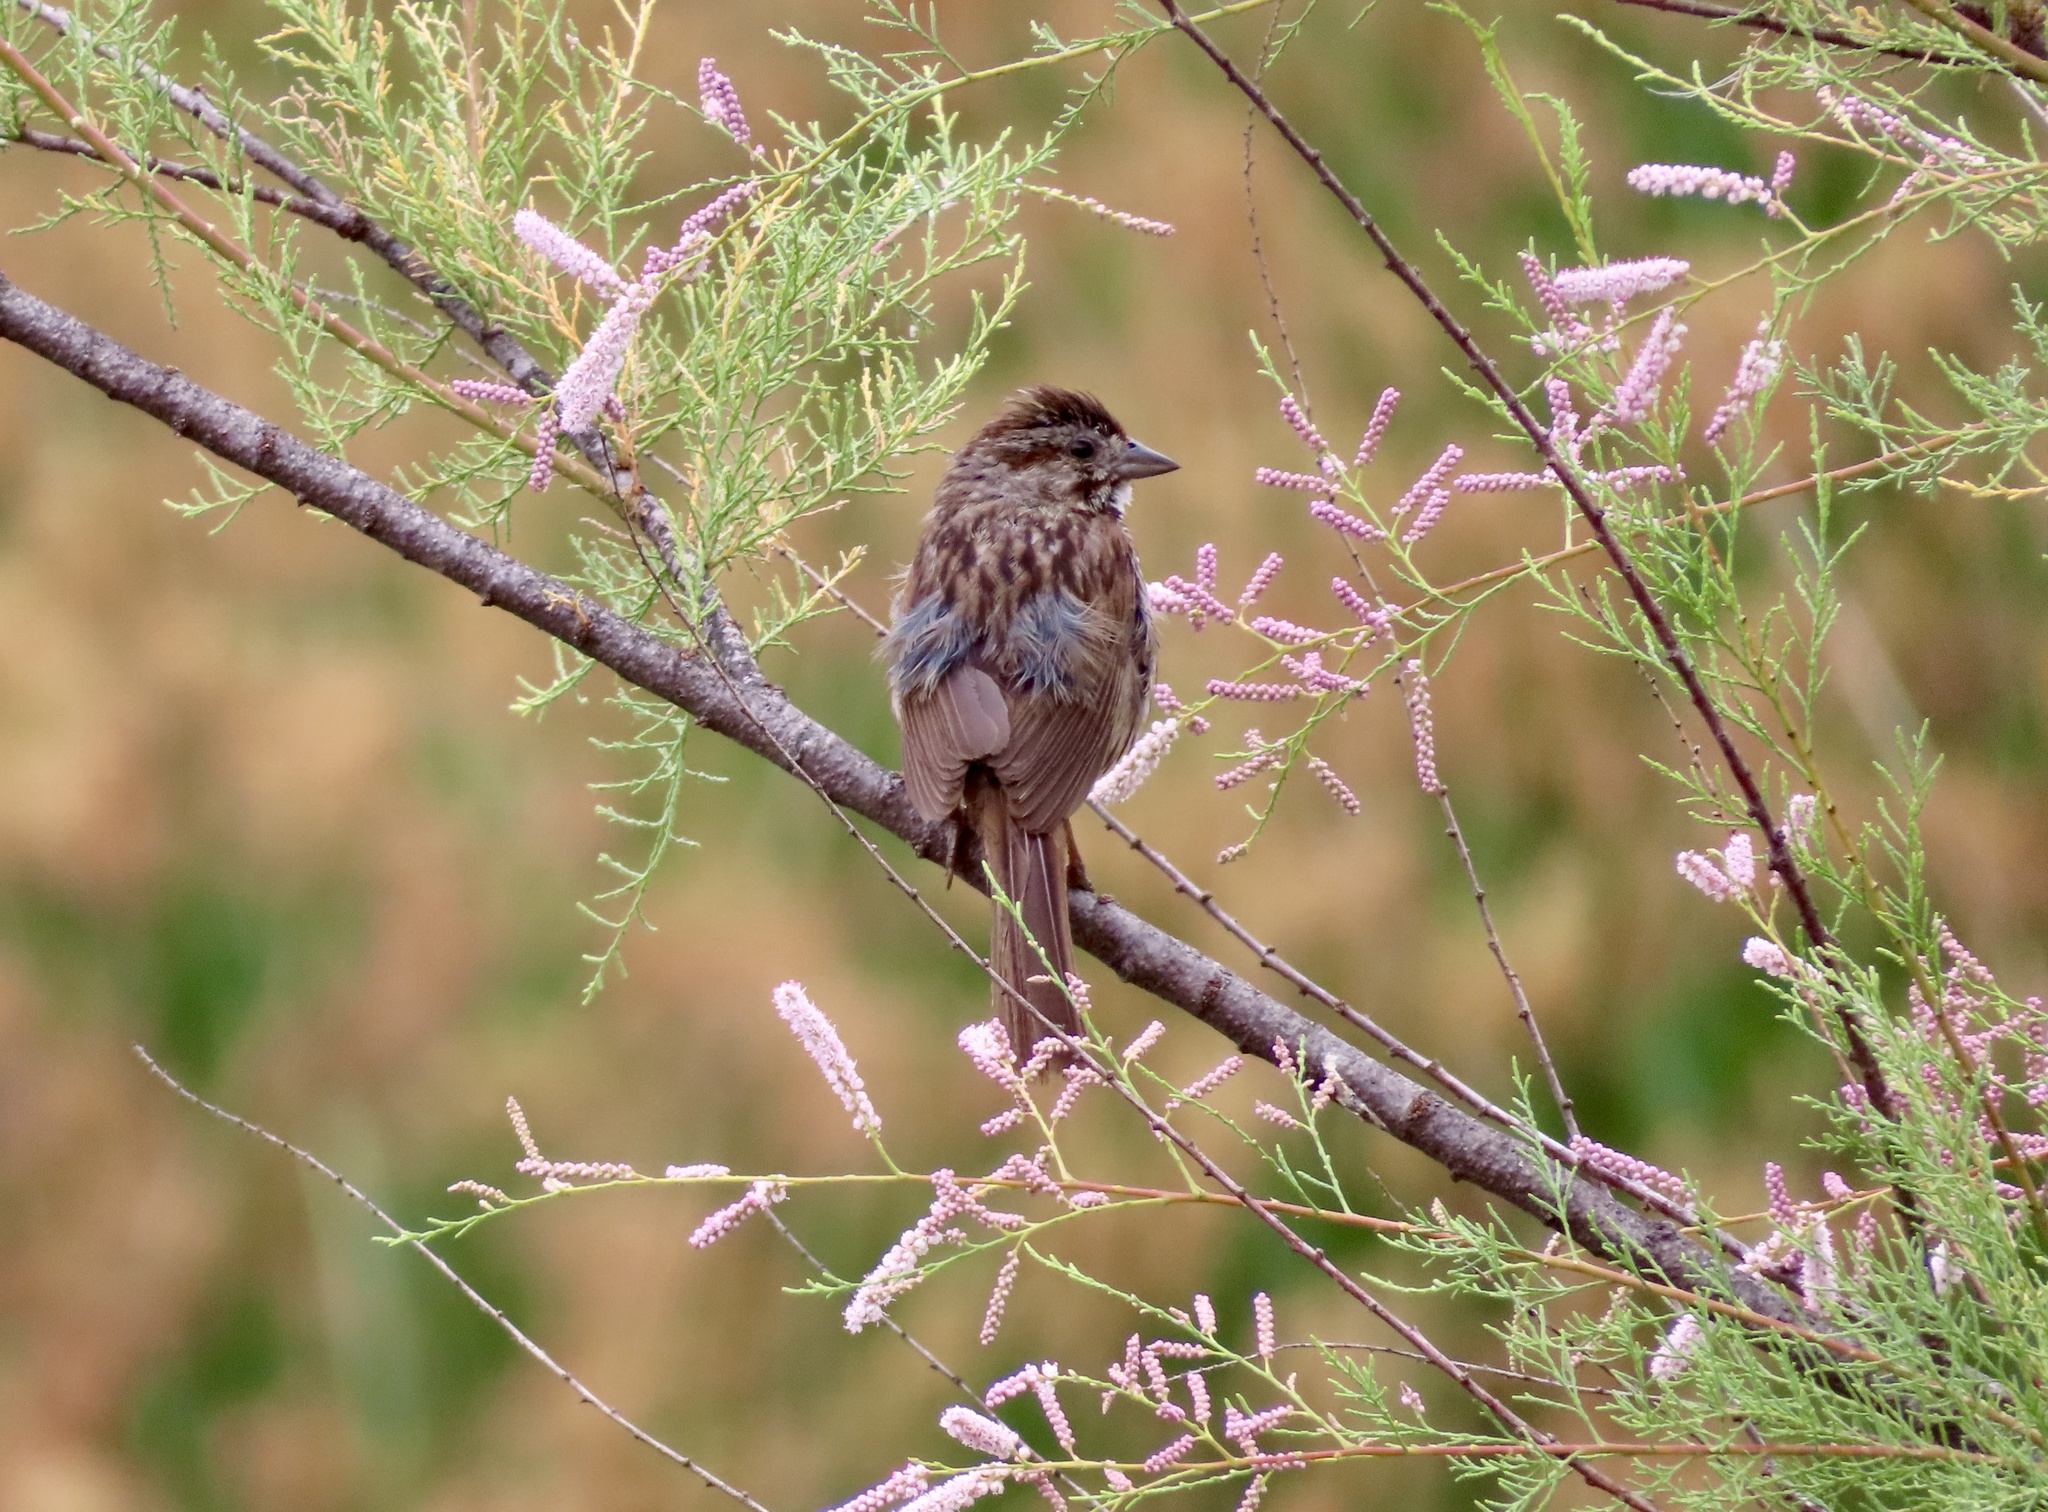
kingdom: Animalia
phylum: Chordata
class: Aves
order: Passeriformes
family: Passerellidae
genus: Melospiza
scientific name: Melospiza melodia
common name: Song sparrow
